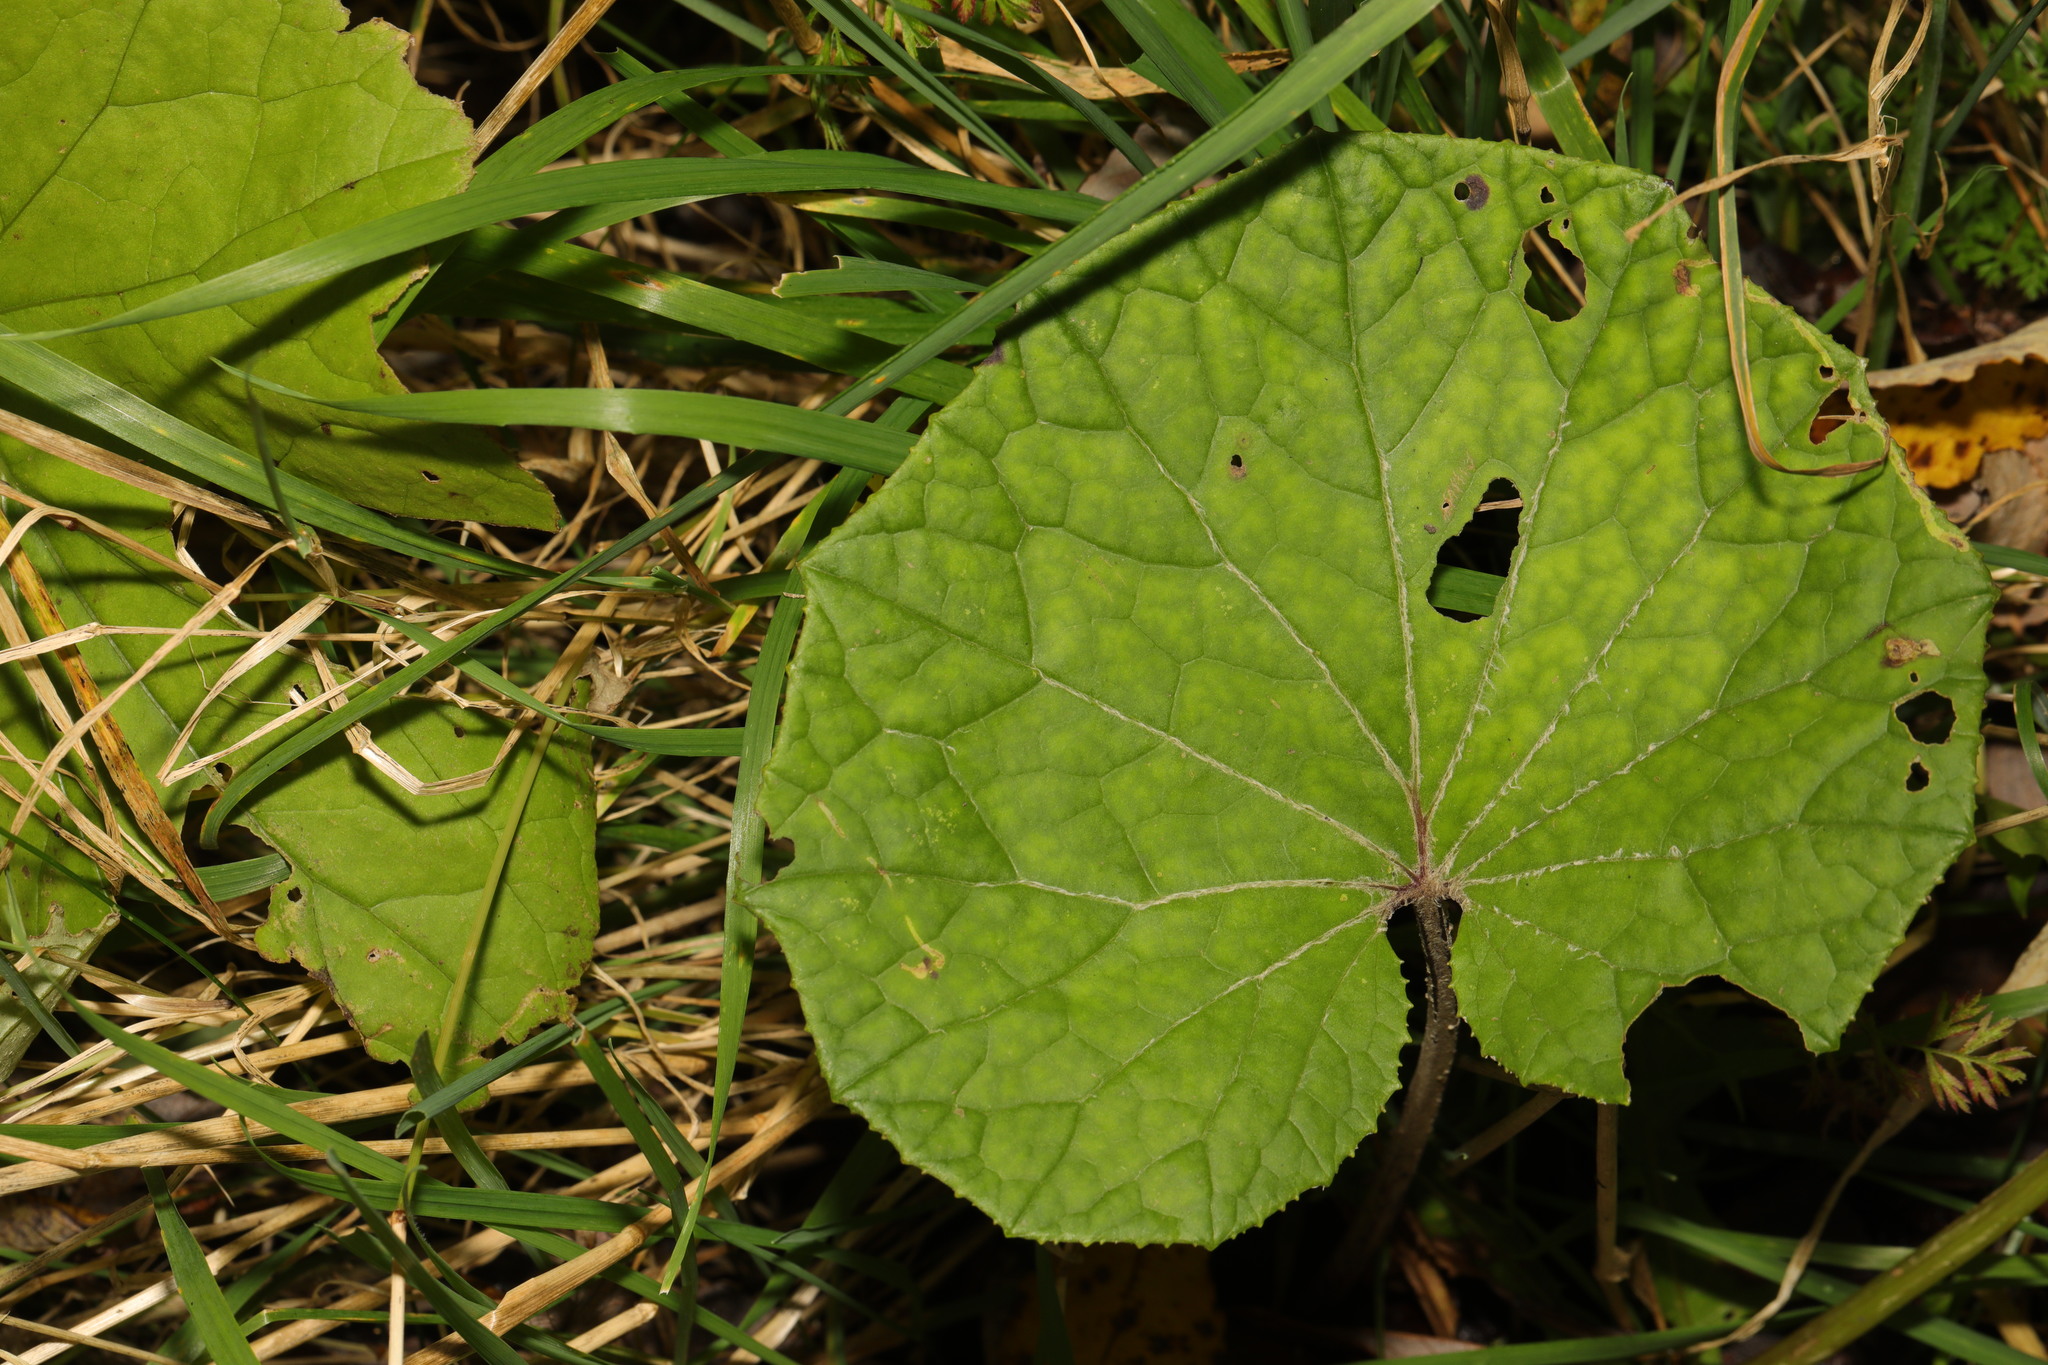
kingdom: Plantae
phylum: Tracheophyta
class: Magnoliopsida
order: Asterales
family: Asteraceae
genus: Tussilago
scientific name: Tussilago farfara
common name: Coltsfoot
